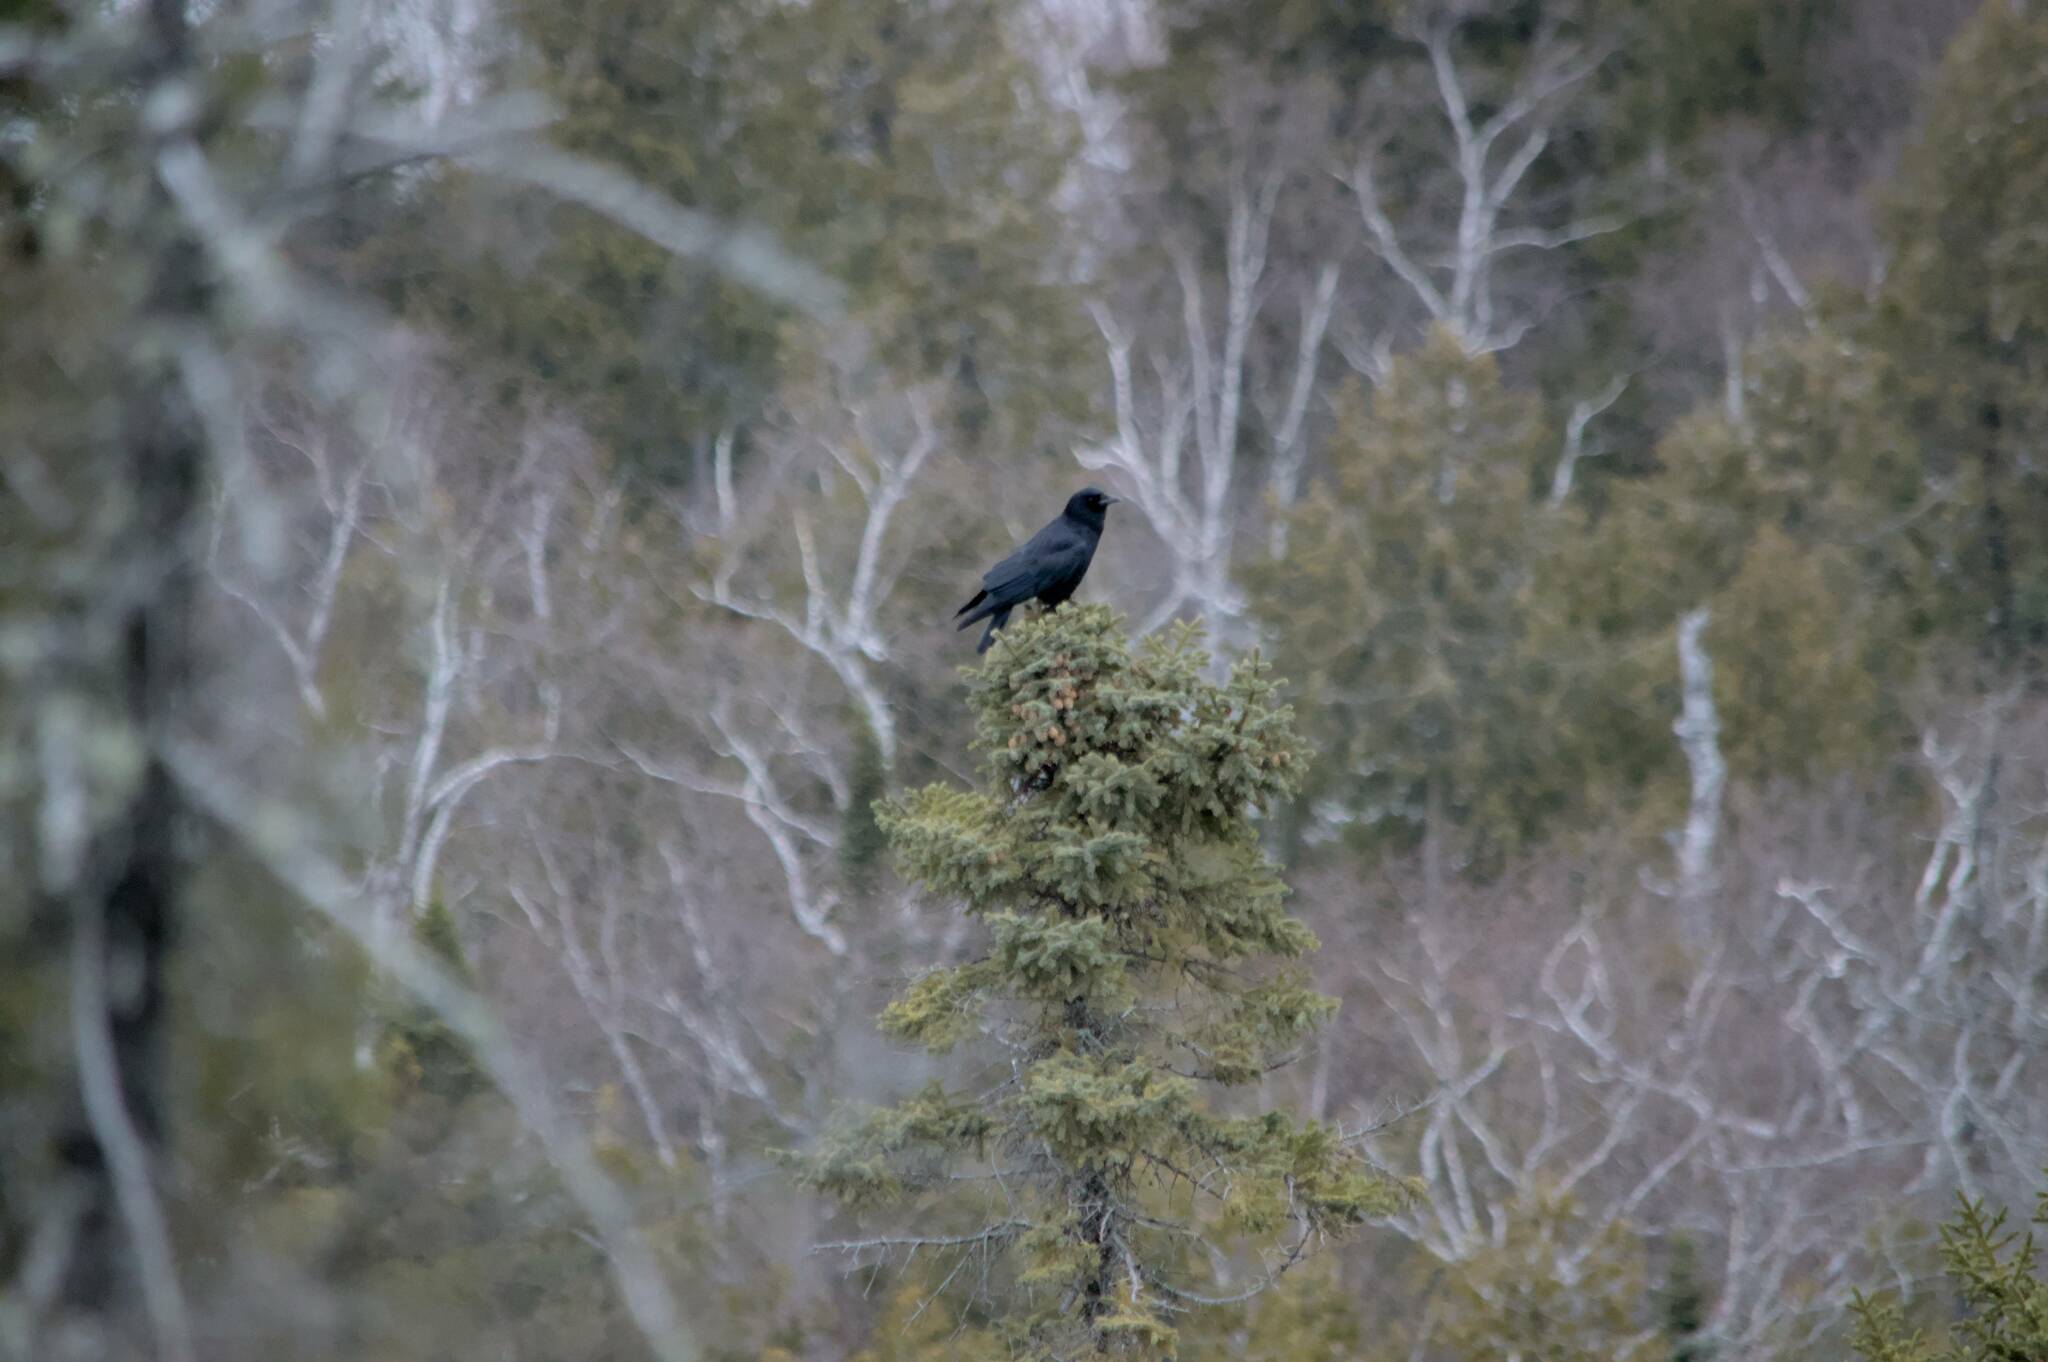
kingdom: Animalia
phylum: Chordata
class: Aves
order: Passeriformes
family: Corvidae
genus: Corvus
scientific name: Corvus brachyrhynchos
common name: American crow
